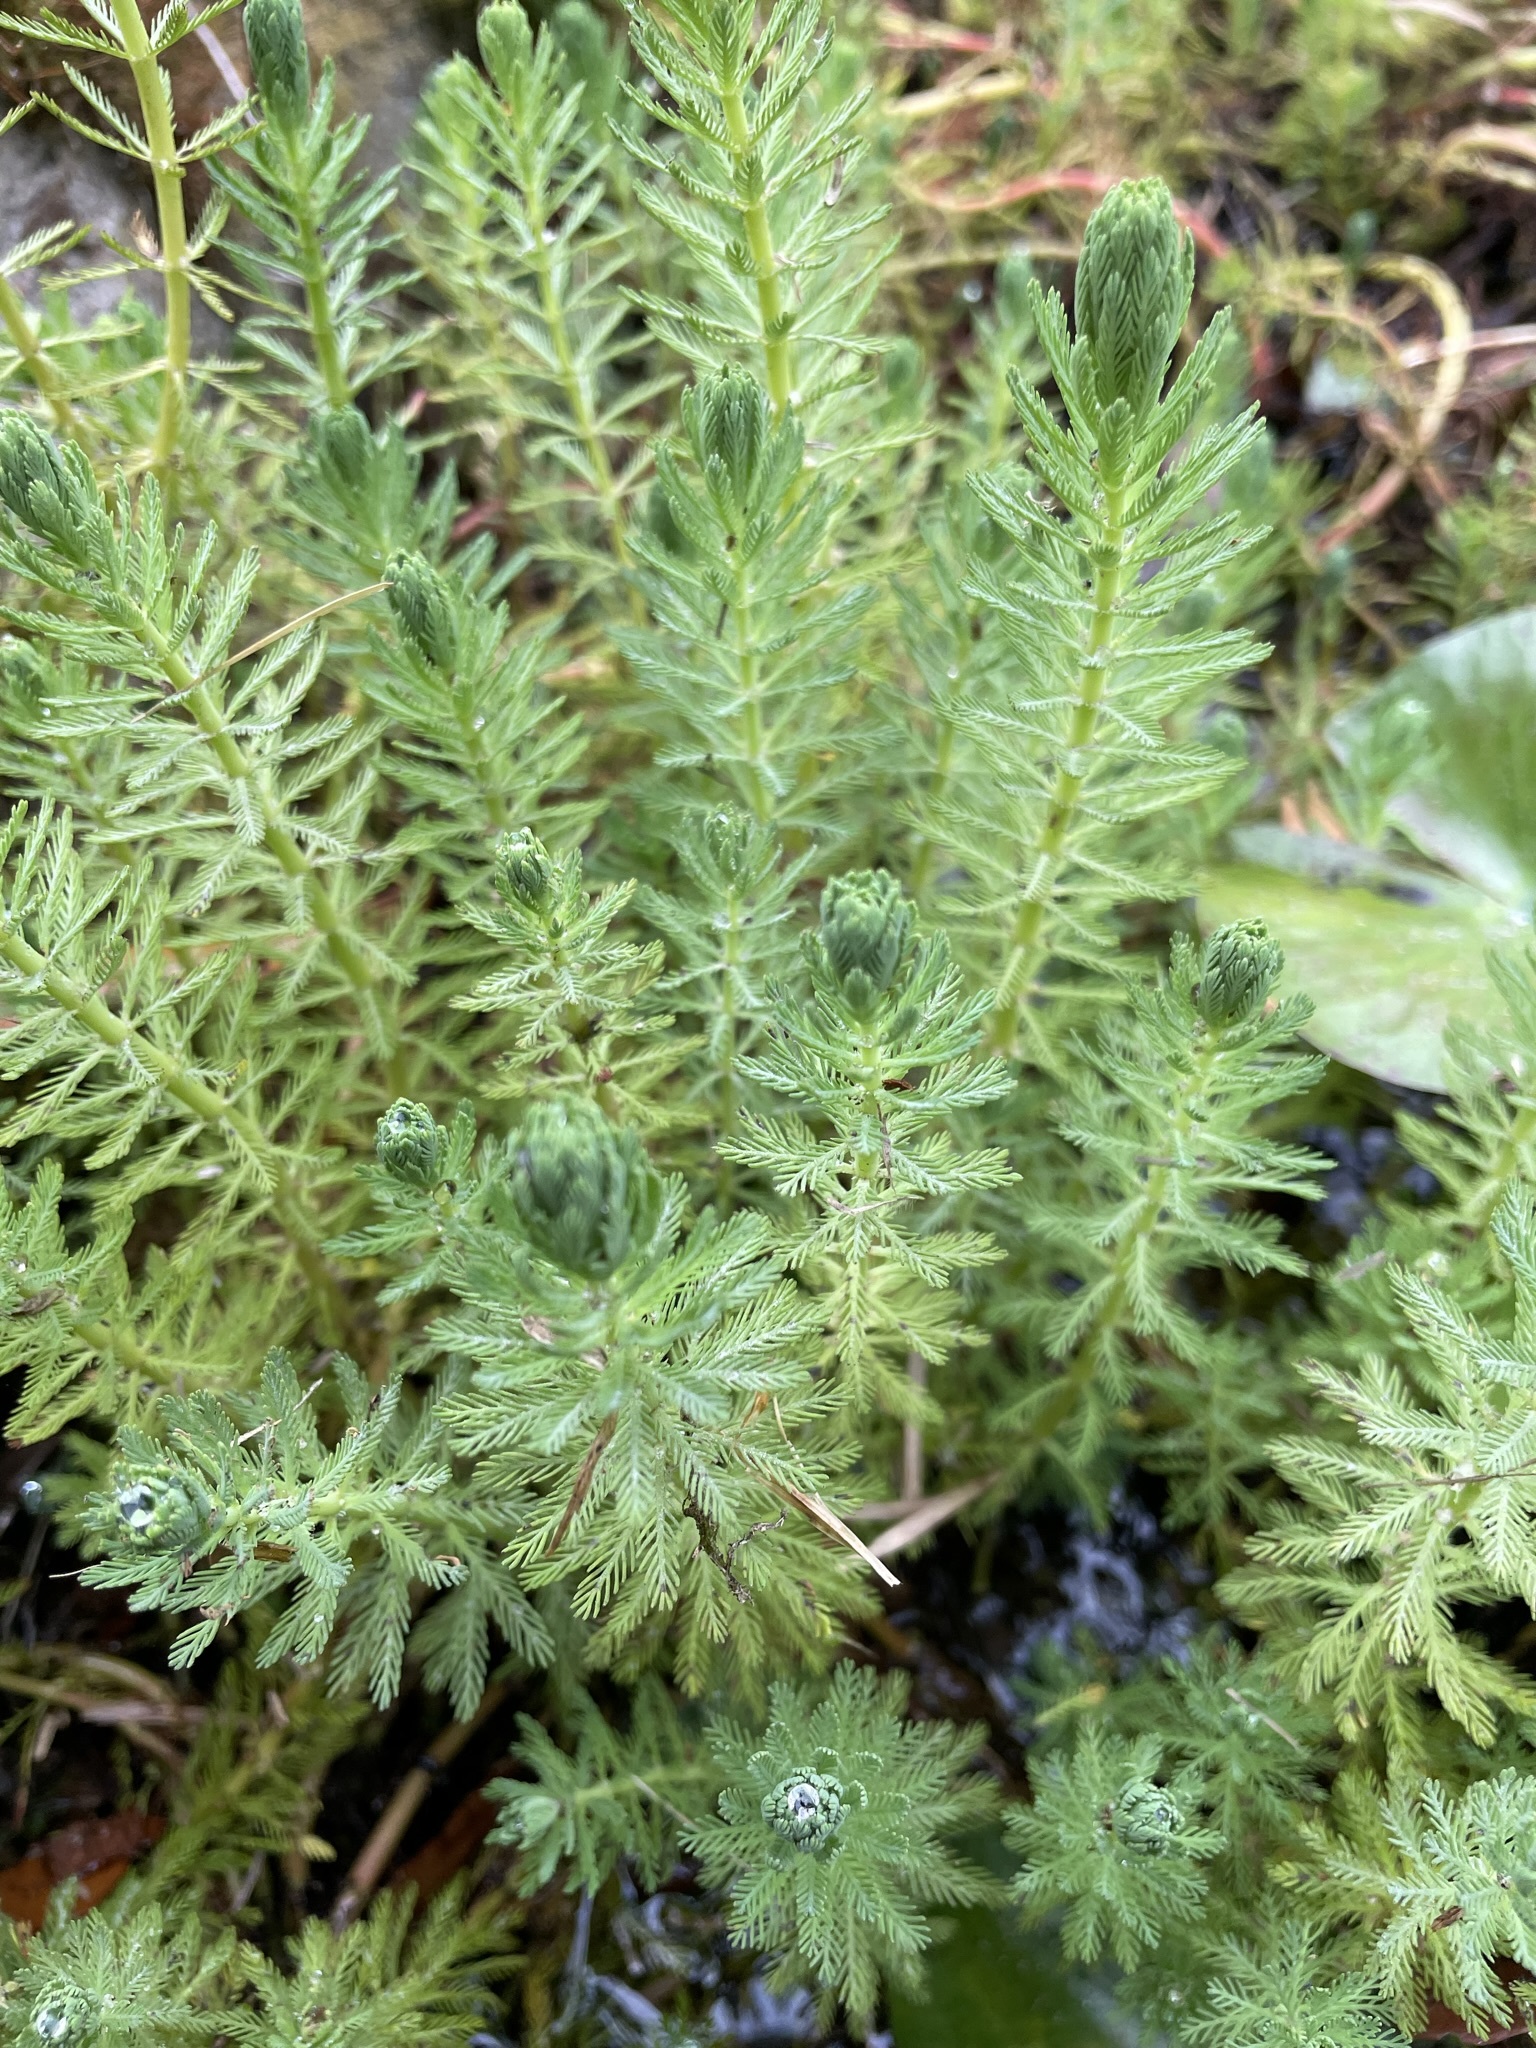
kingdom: Plantae
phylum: Tracheophyta
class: Magnoliopsida
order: Saxifragales
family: Haloragaceae
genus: Myriophyllum
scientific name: Myriophyllum aquaticum
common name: Parrot's feather
